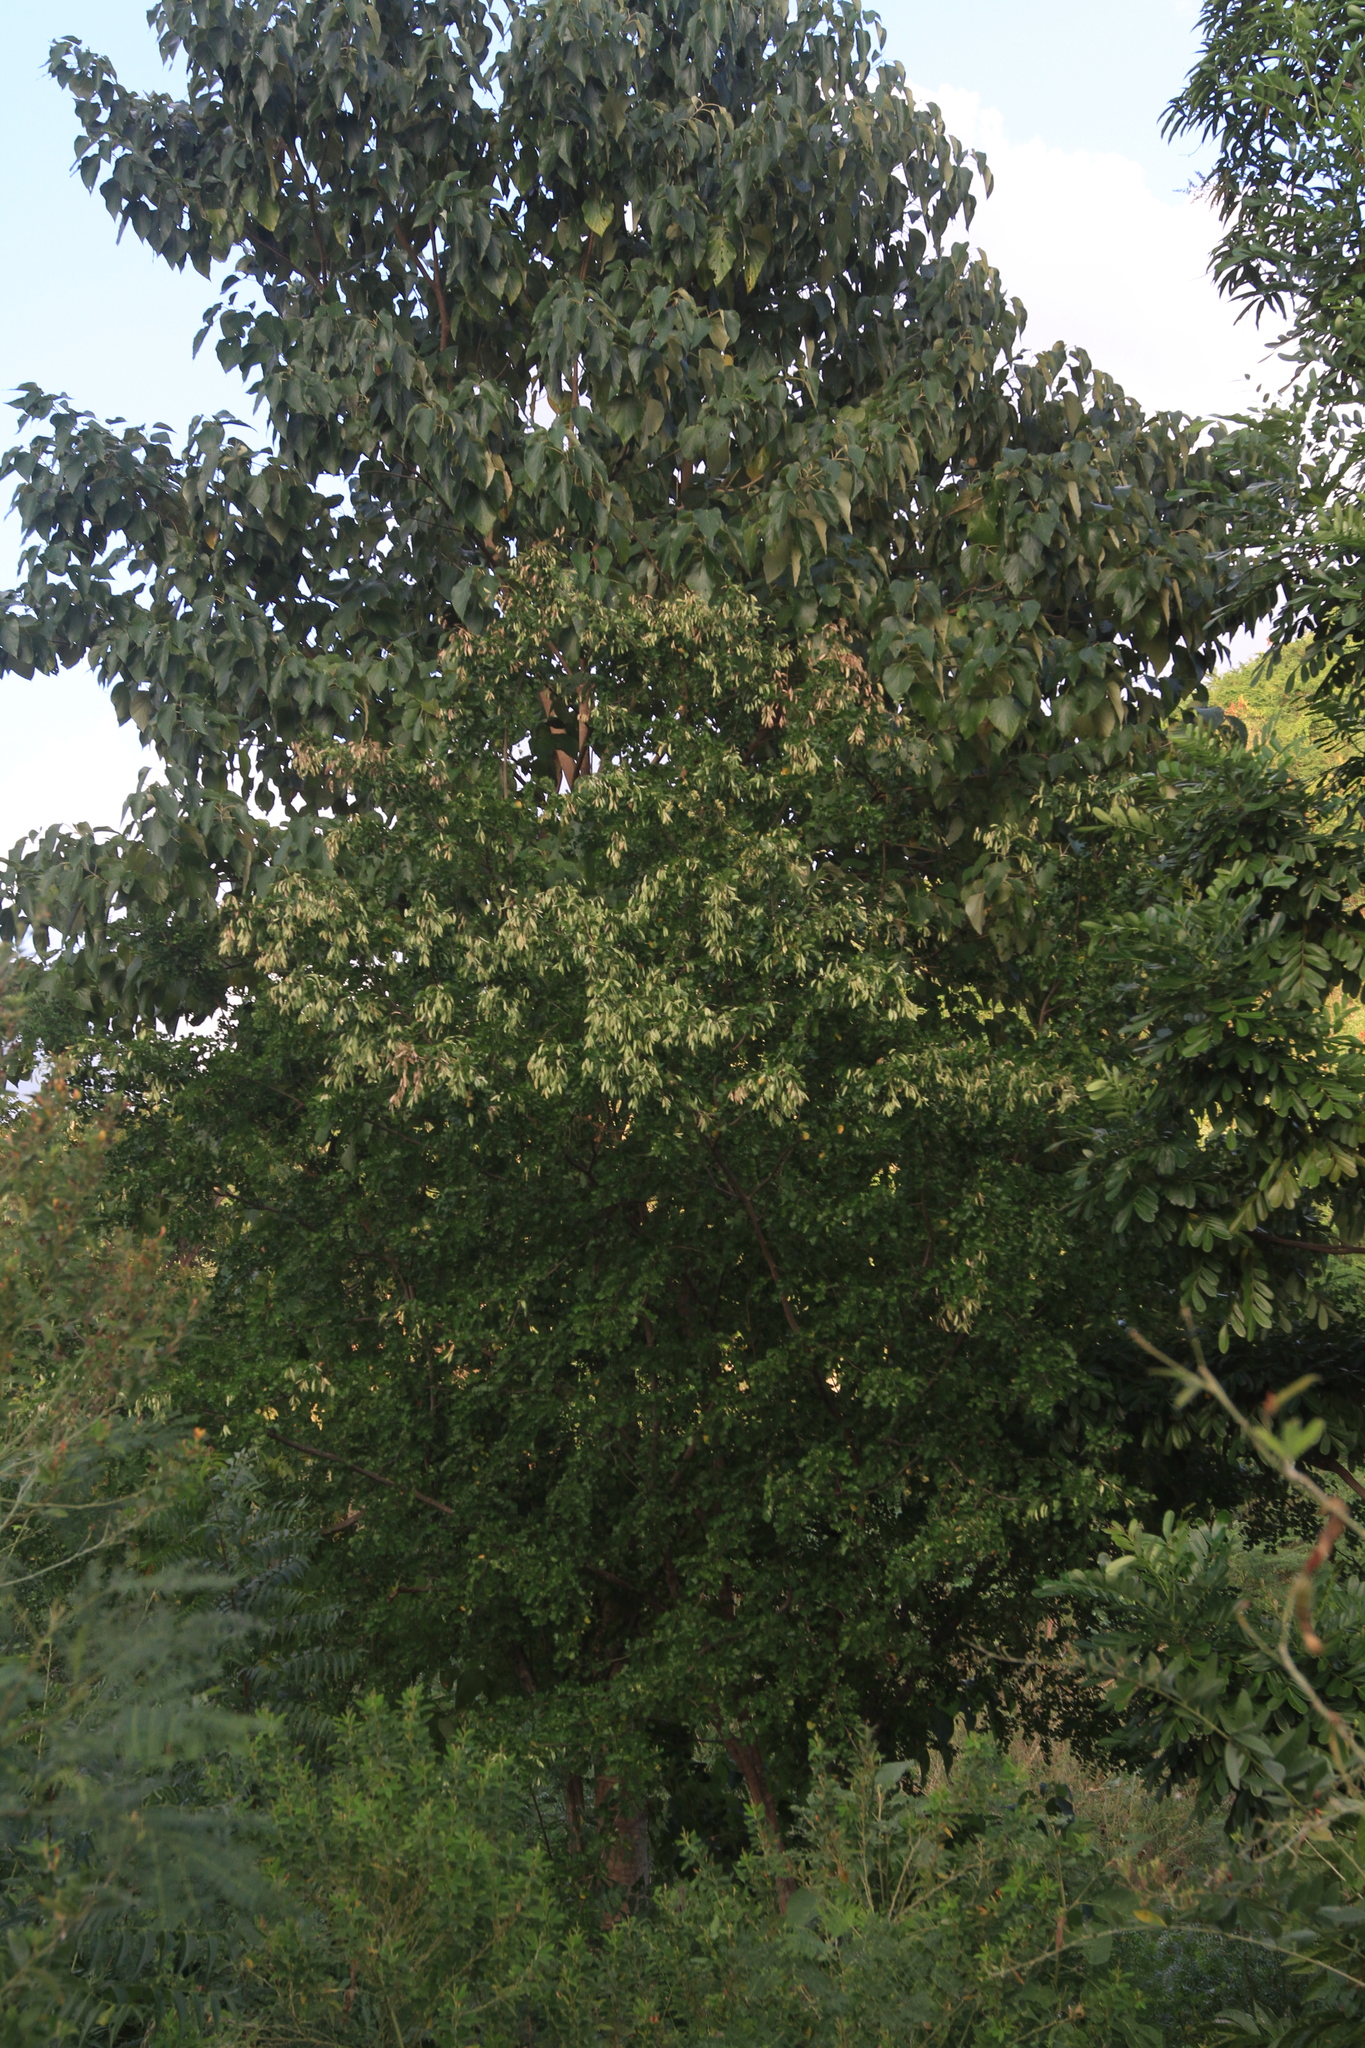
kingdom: Plantae
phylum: Tracheophyta
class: Magnoliopsida
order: Fabales
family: Fabaceae
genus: Haematoxylum
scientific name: Haematoxylum campechianum
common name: Logwood
